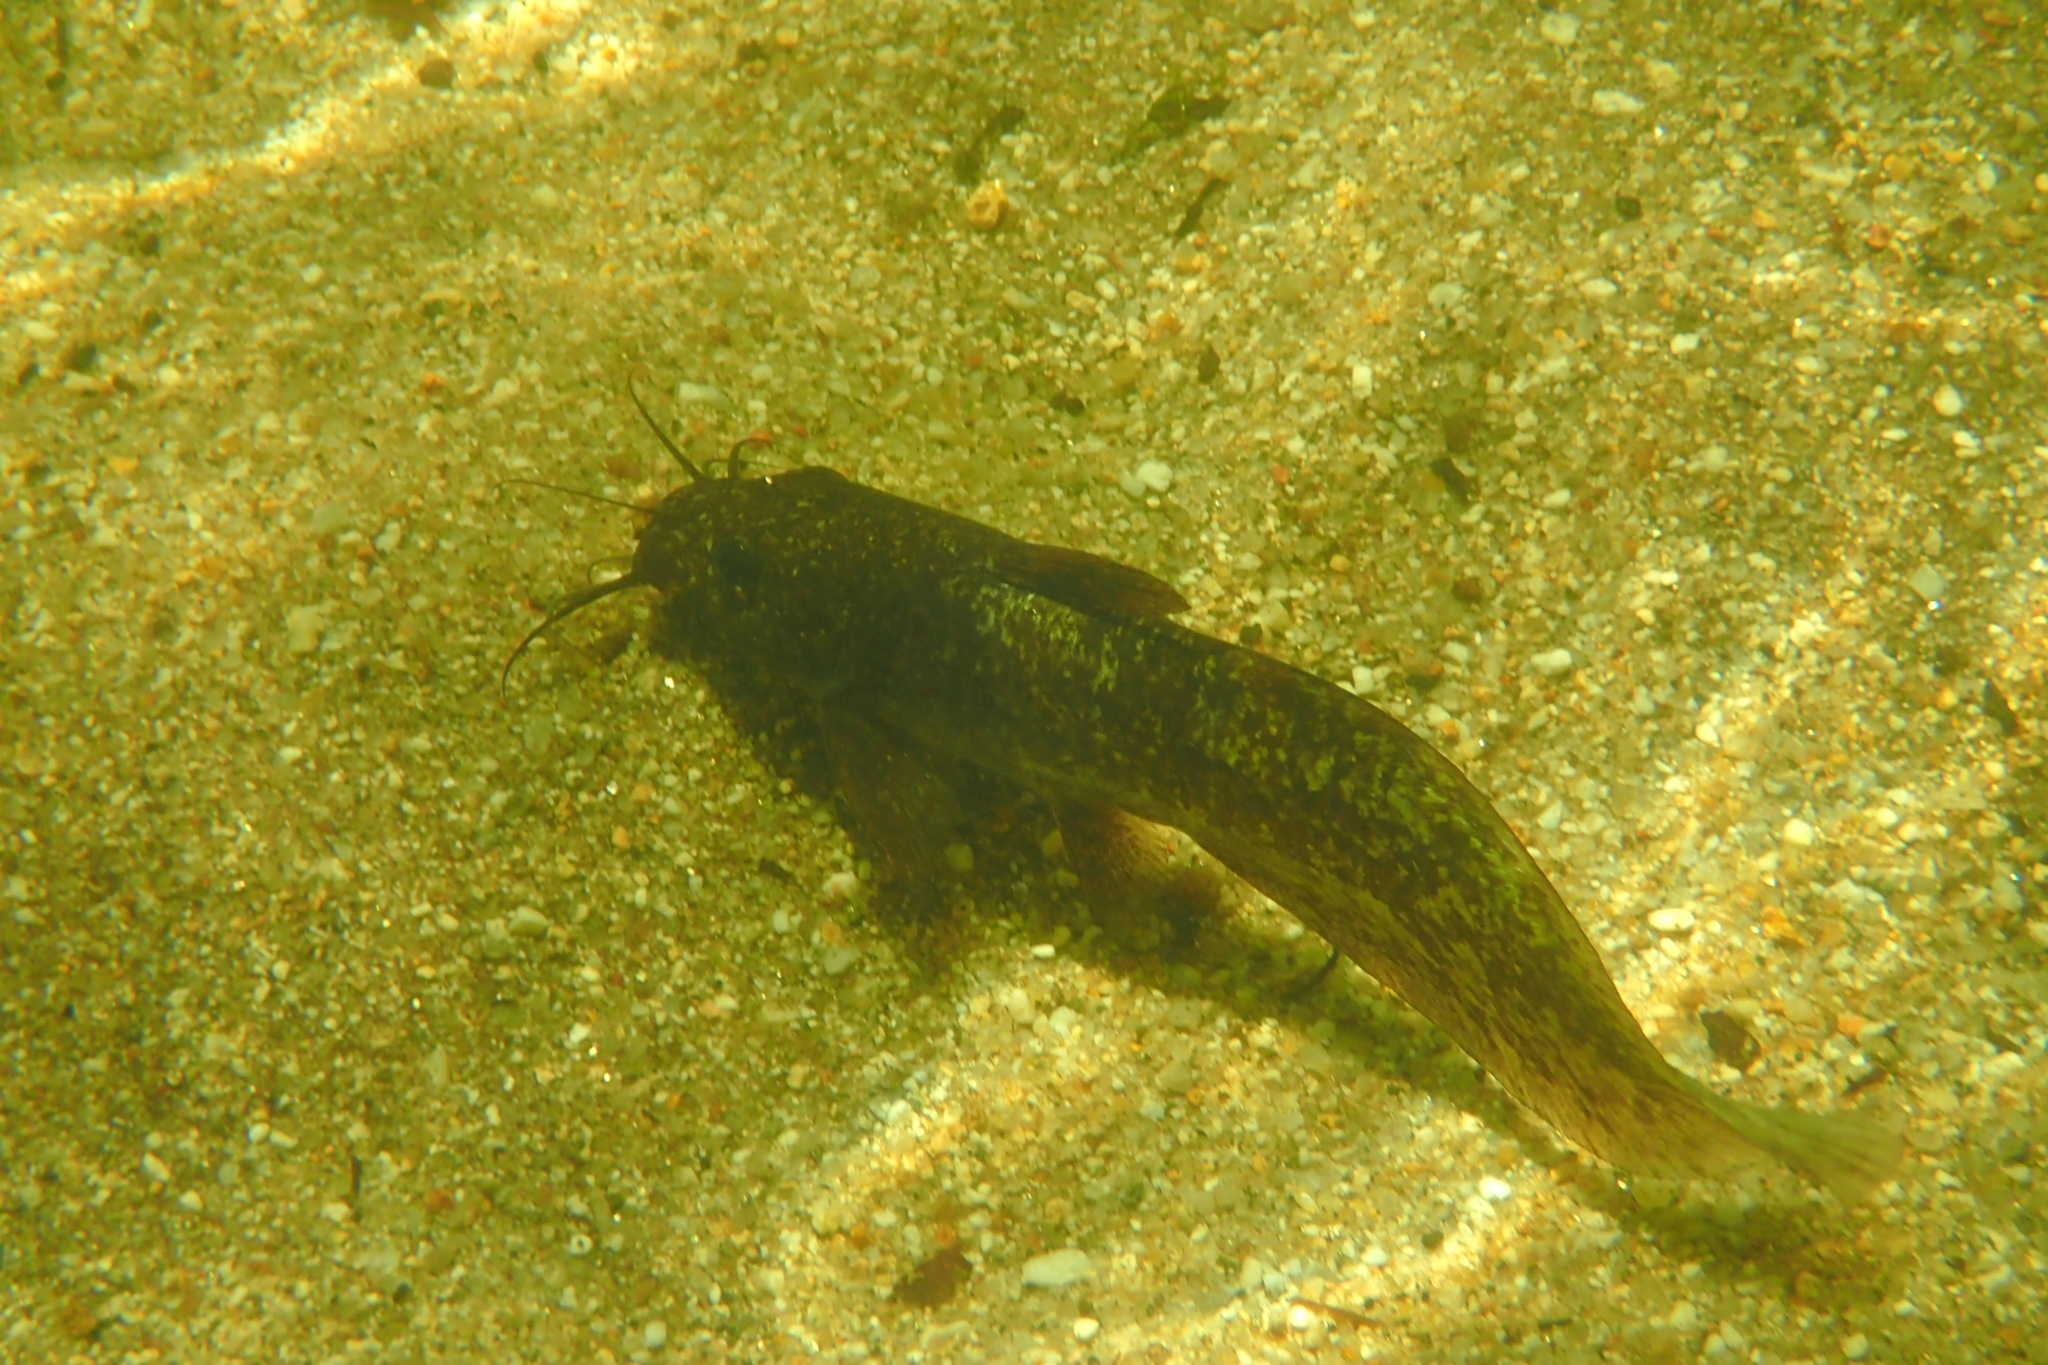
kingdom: Animalia
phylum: Chordata
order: Siluriformes
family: Plotosidae
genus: Tandanus
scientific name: Tandanus tropicanus
